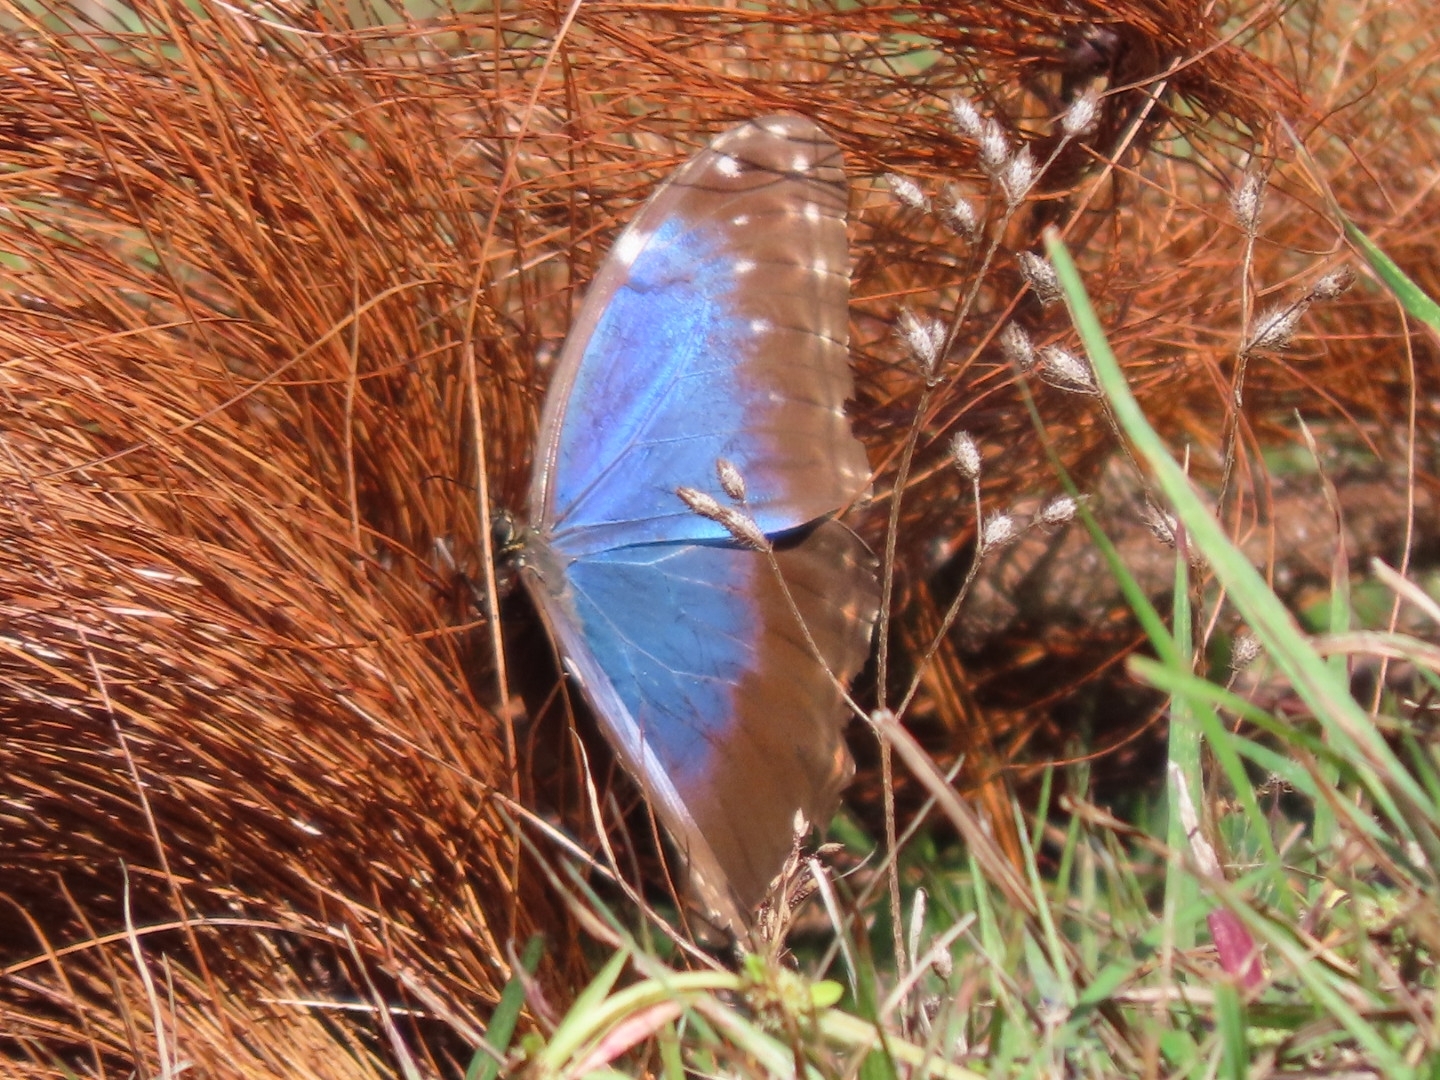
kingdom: Animalia
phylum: Arthropoda
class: Insecta
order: Lepidoptera
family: Nymphalidae
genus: Morpho
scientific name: Morpho helenor
